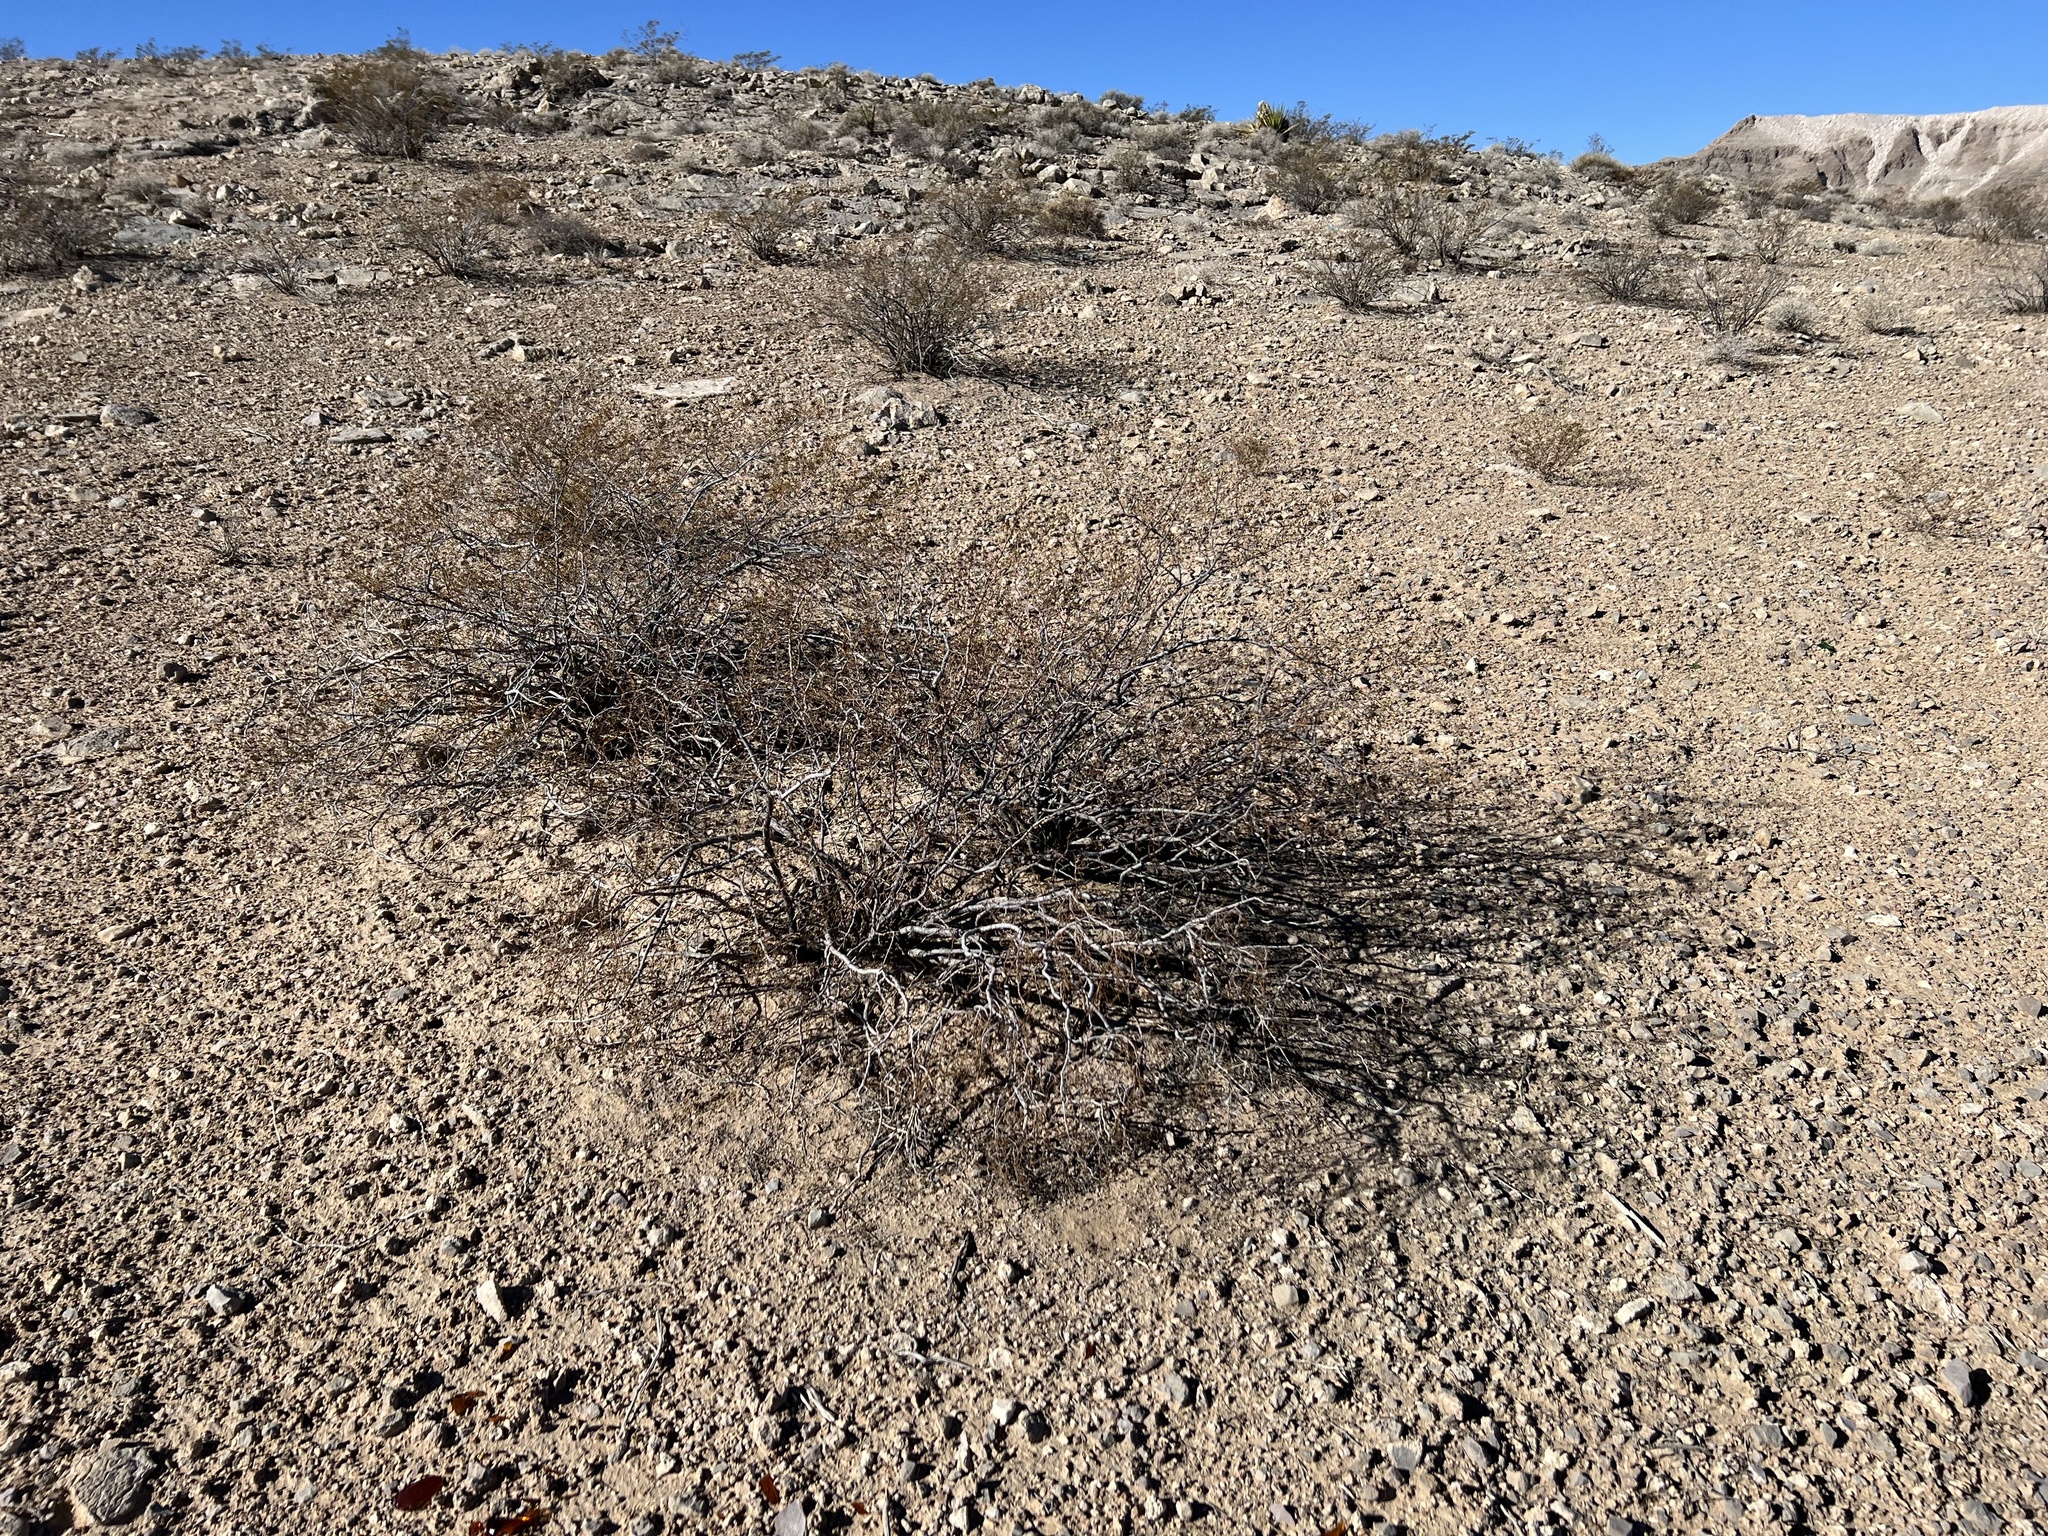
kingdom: Plantae
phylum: Tracheophyta
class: Magnoliopsida
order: Zygophyllales
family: Zygophyllaceae
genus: Larrea
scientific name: Larrea tridentata
